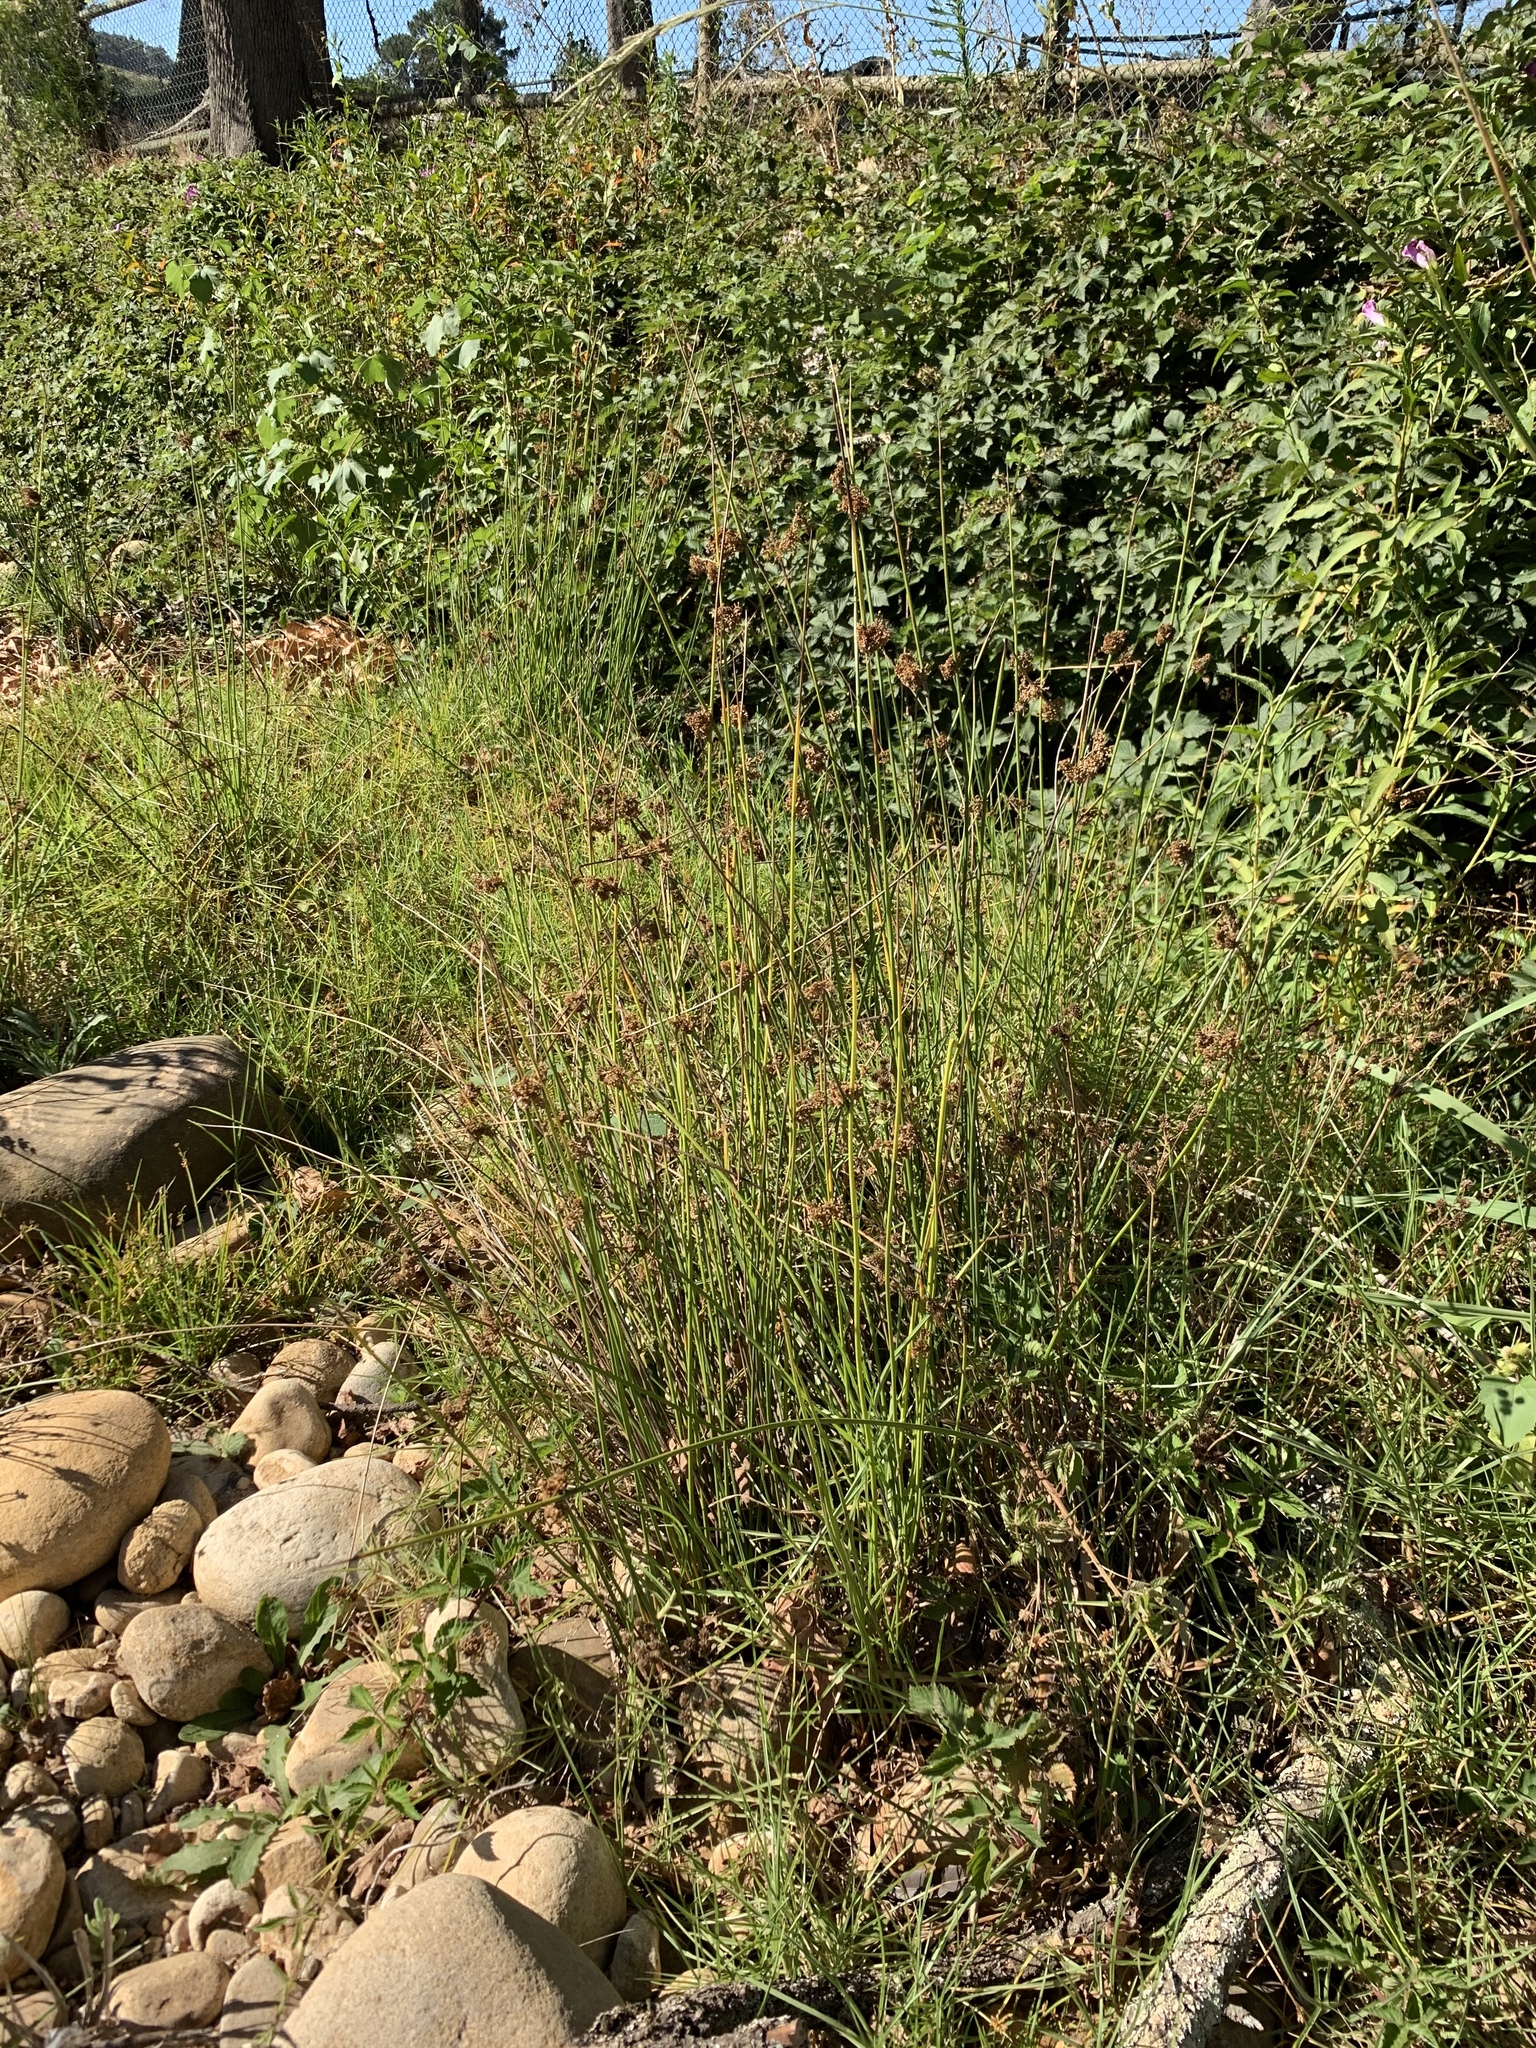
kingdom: Plantae
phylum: Tracheophyta
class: Liliopsida
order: Poales
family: Juncaceae
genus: Juncus
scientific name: Juncus effusus
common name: Soft rush
